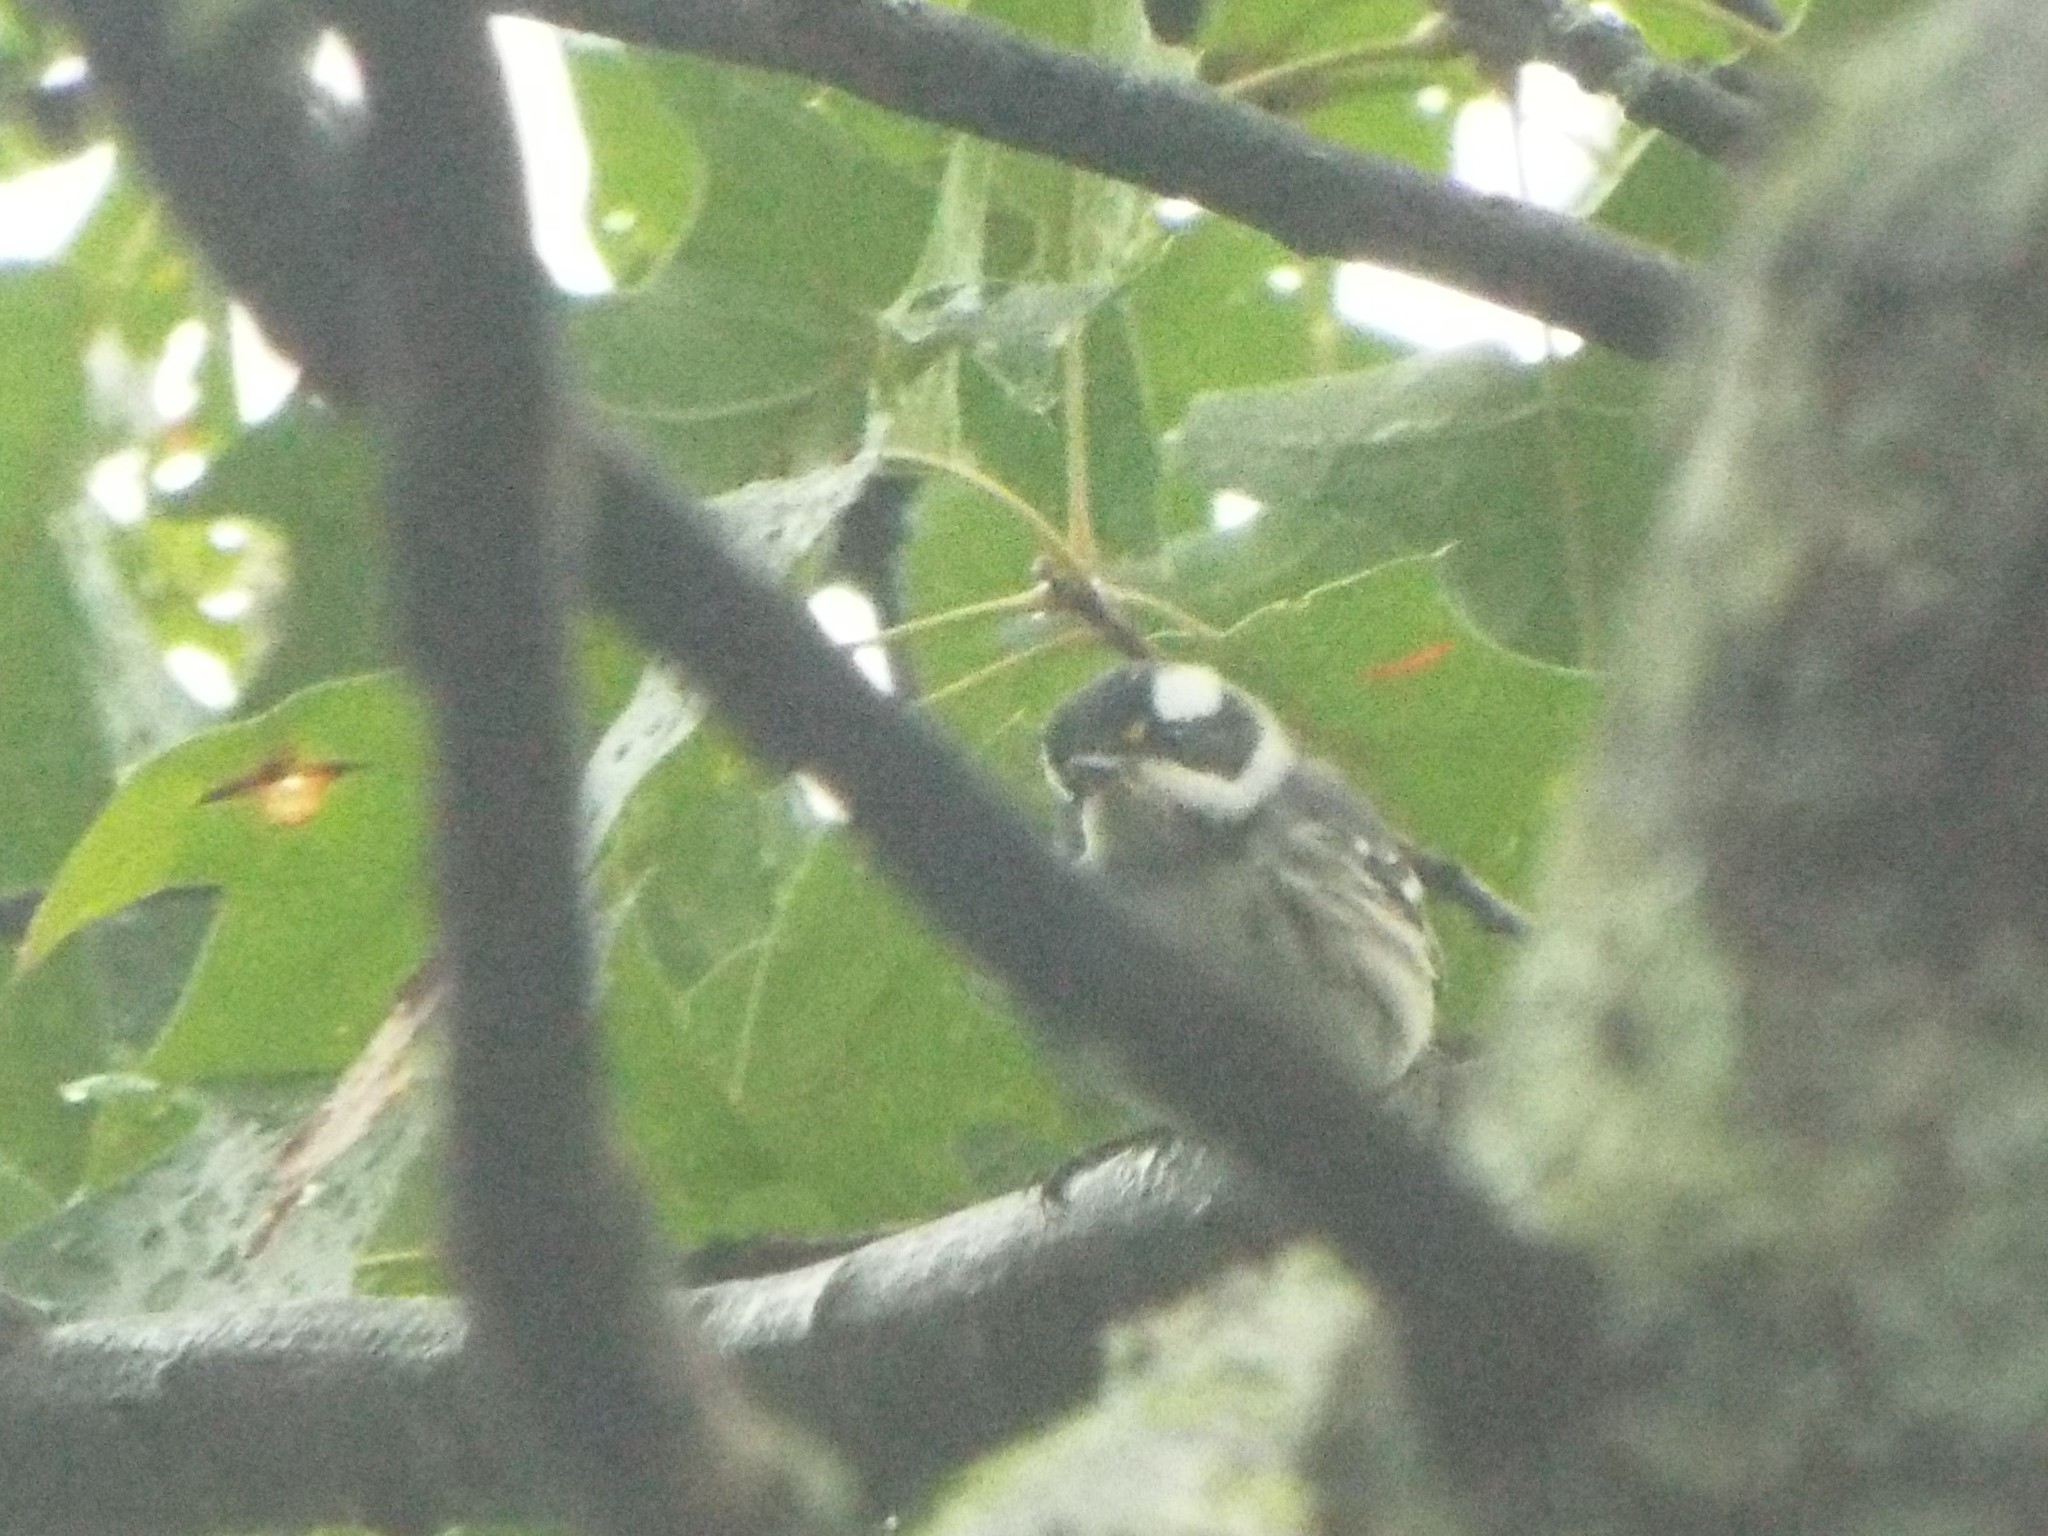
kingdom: Animalia
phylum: Chordata
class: Aves
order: Passeriformes
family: Parulidae
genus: Setophaga
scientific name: Setophaga nigrescens
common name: Black-throated gray warbler
